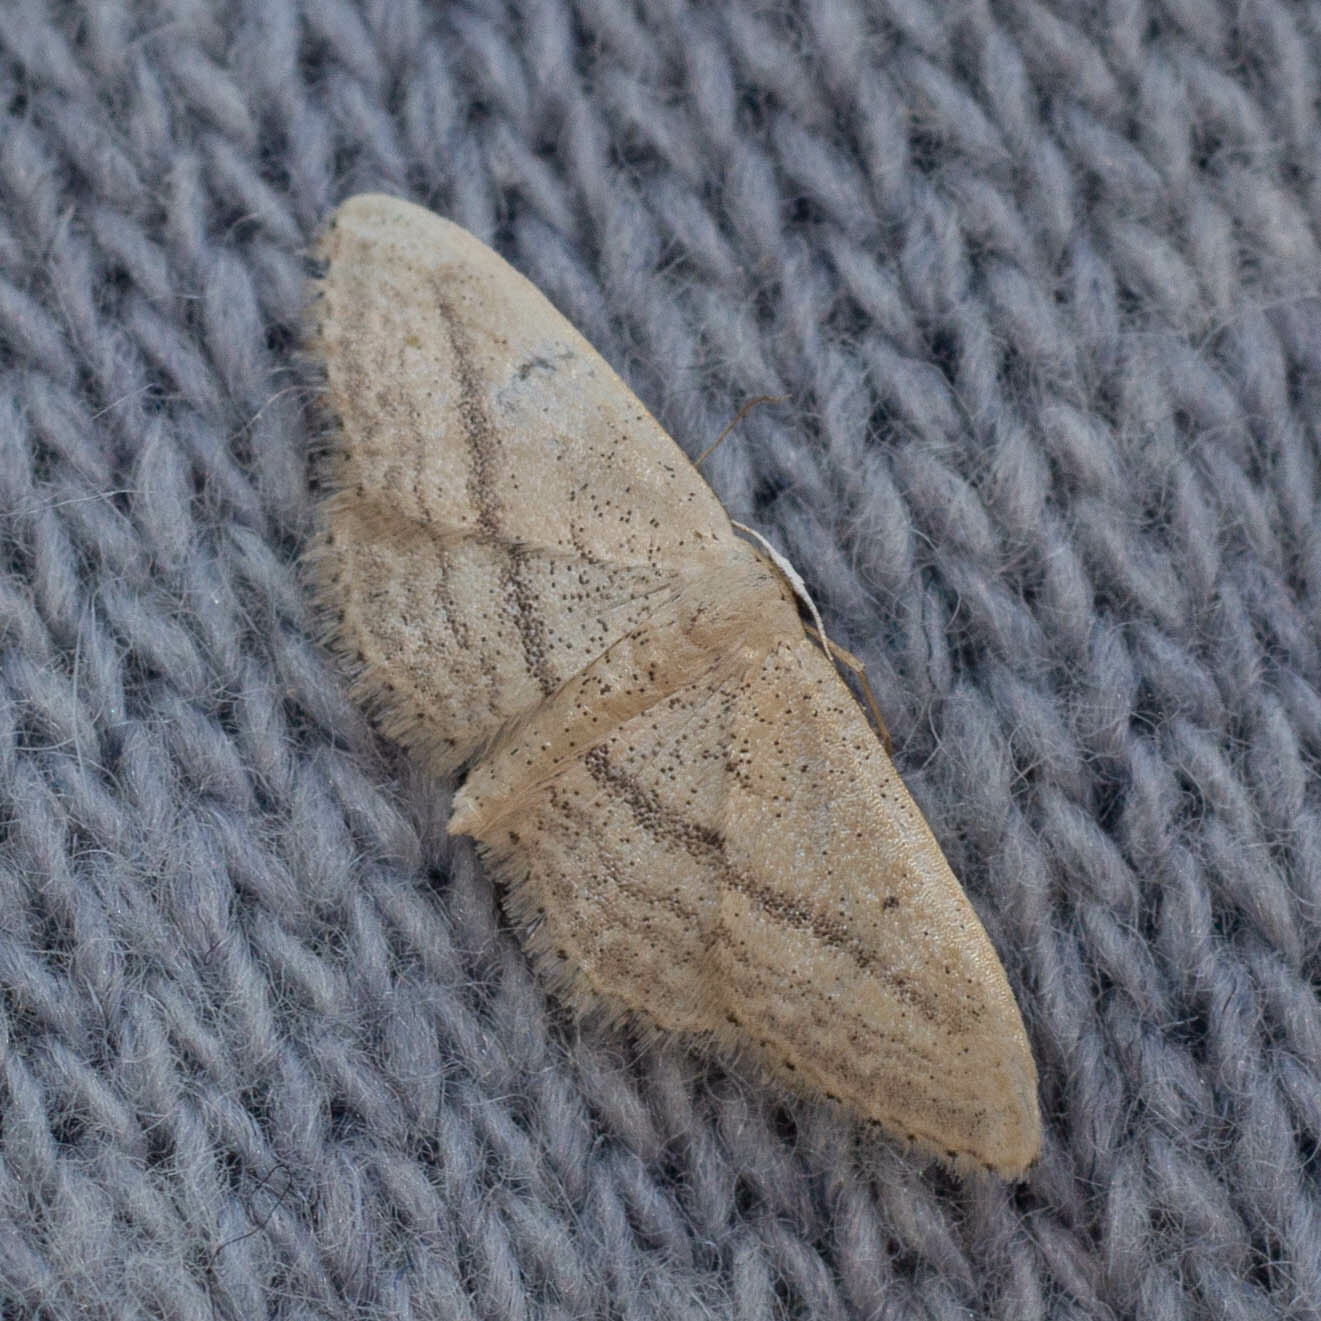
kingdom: Animalia
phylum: Arthropoda
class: Insecta
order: Lepidoptera
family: Geometridae
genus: Idaea
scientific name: Idaea mediaria
